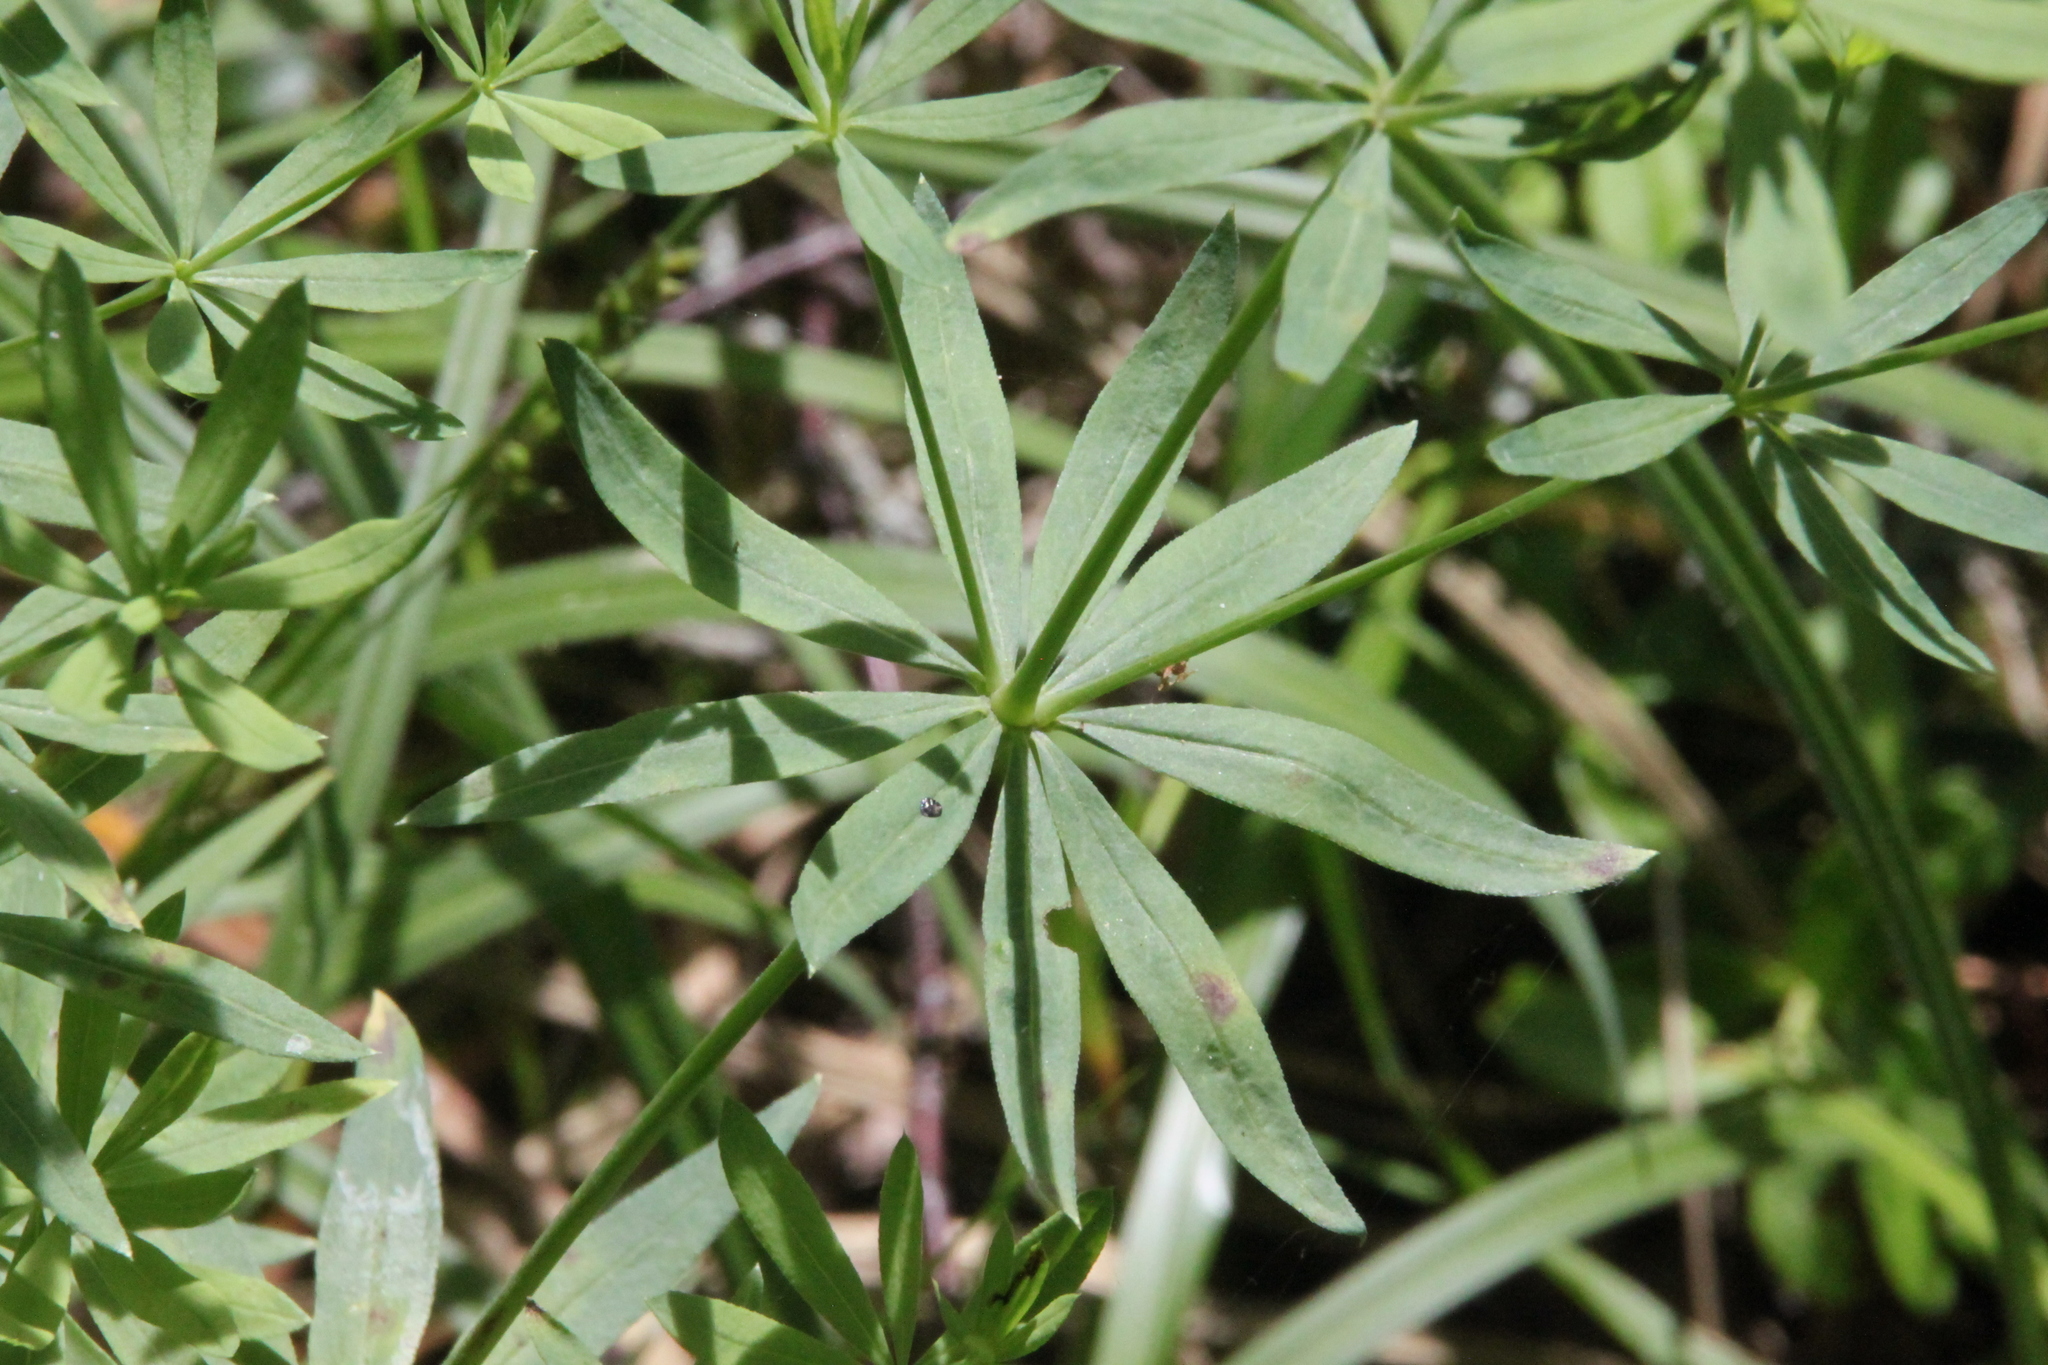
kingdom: Plantae
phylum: Tracheophyta
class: Magnoliopsida
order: Gentianales
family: Rubiaceae
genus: Galium
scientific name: Galium intermedium
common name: Bedstraw
